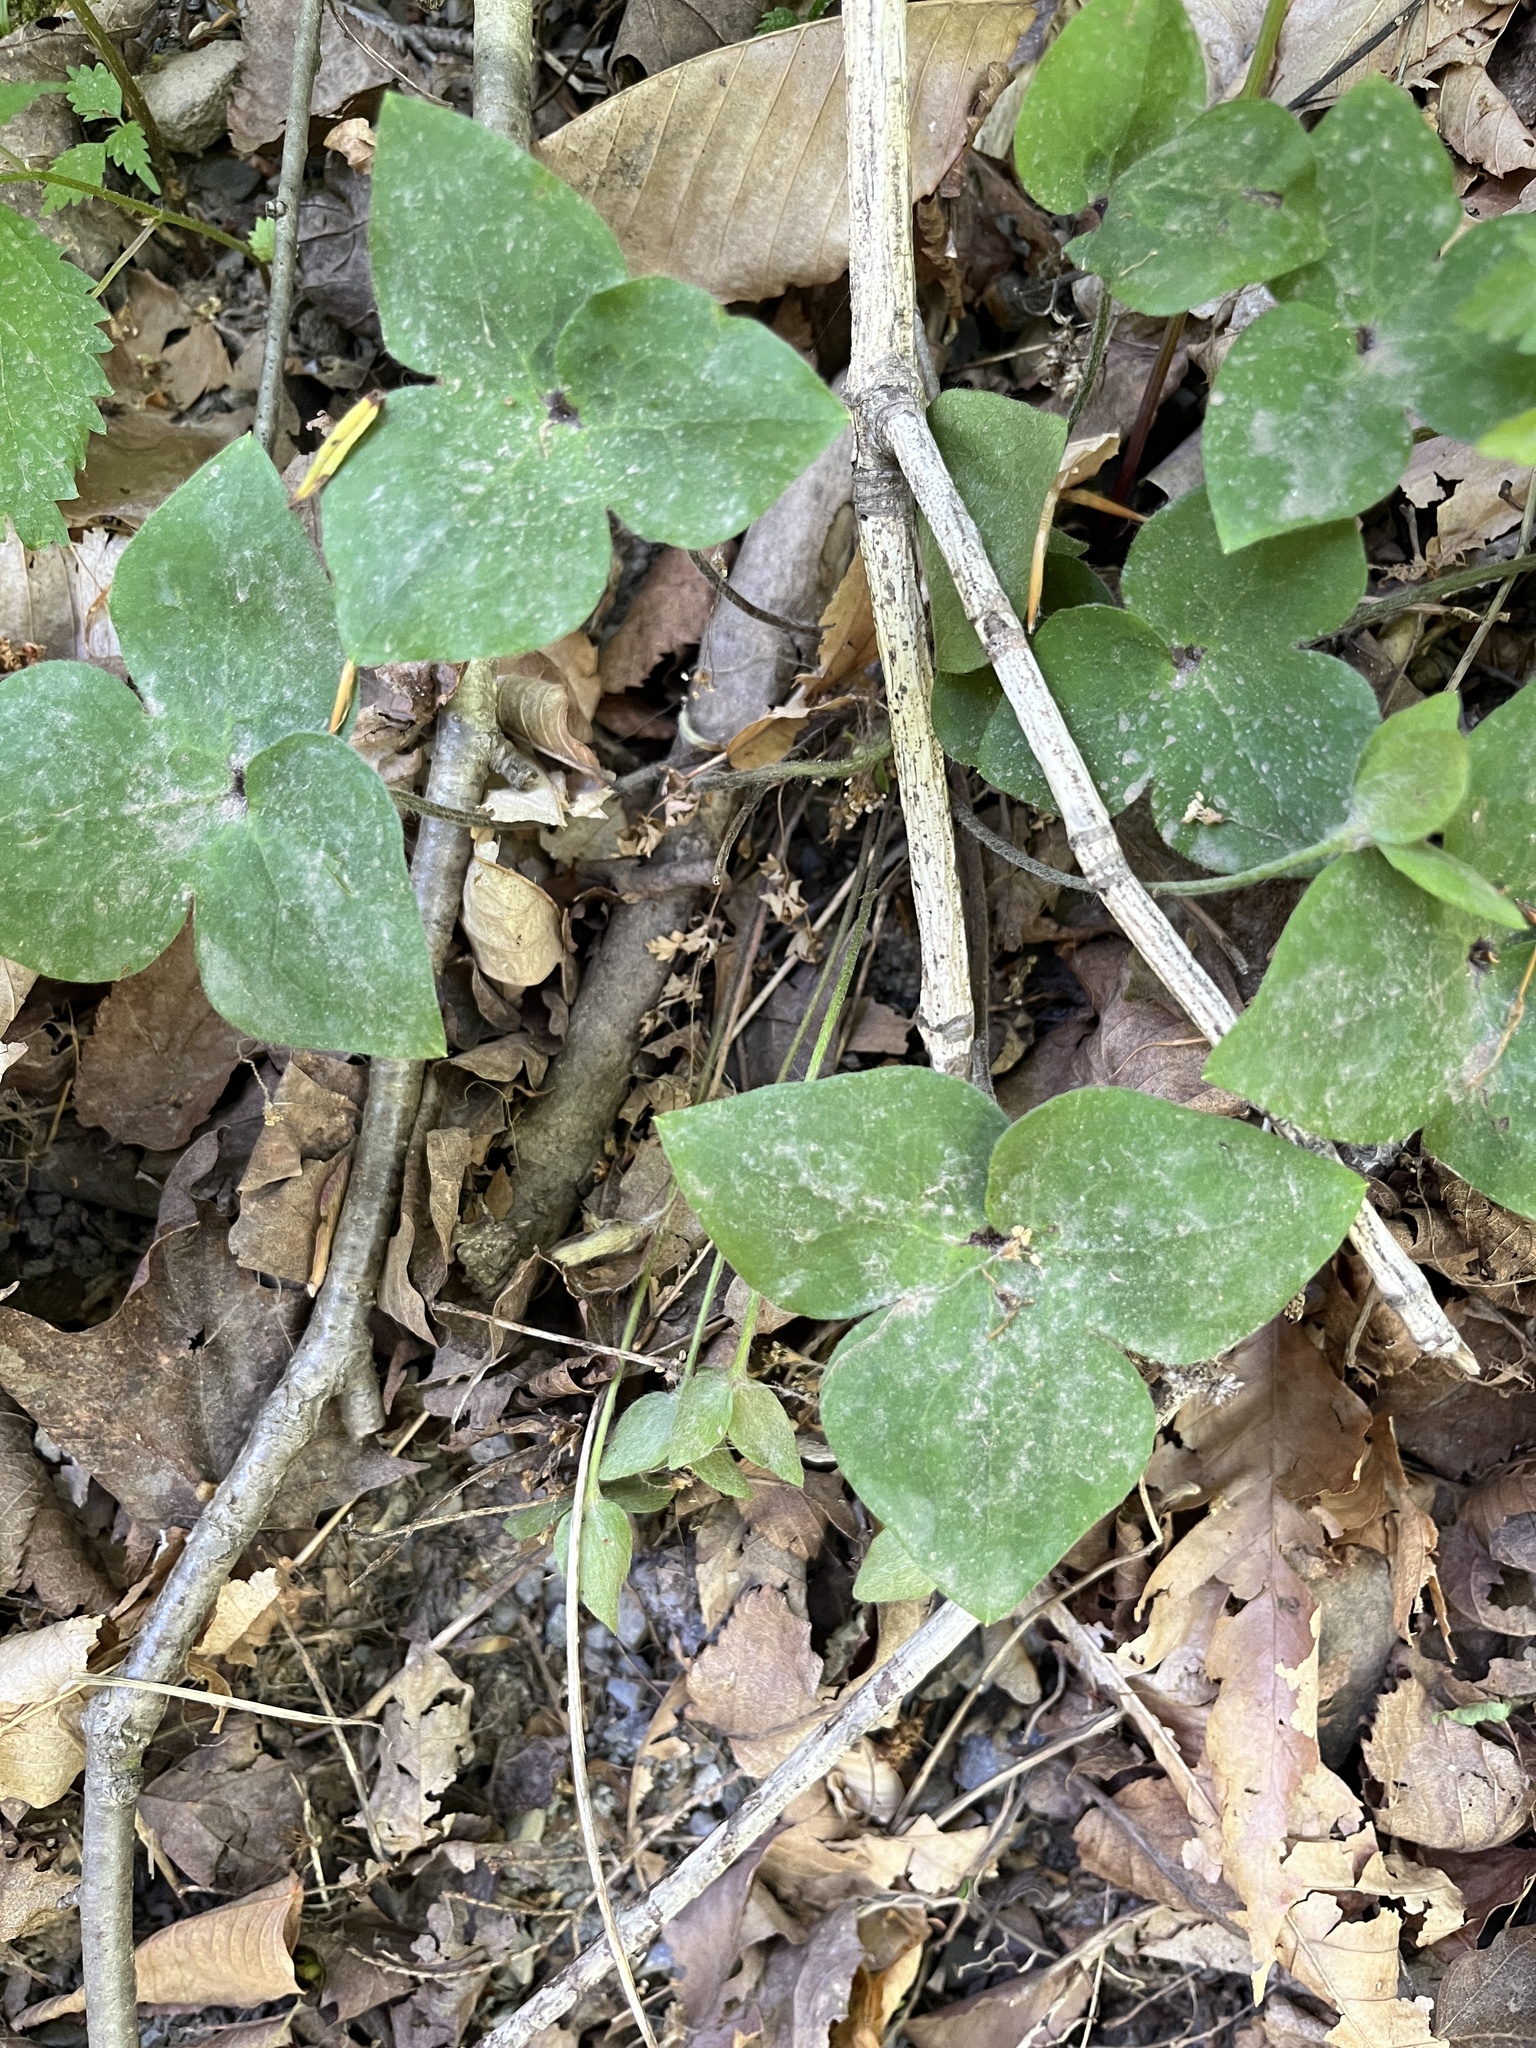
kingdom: Plantae
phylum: Tracheophyta
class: Magnoliopsida
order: Ranunculales
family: Ranunculaceae
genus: Hepatica
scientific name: Hepatica acutiloba
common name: Sharp-lobed hepatica
